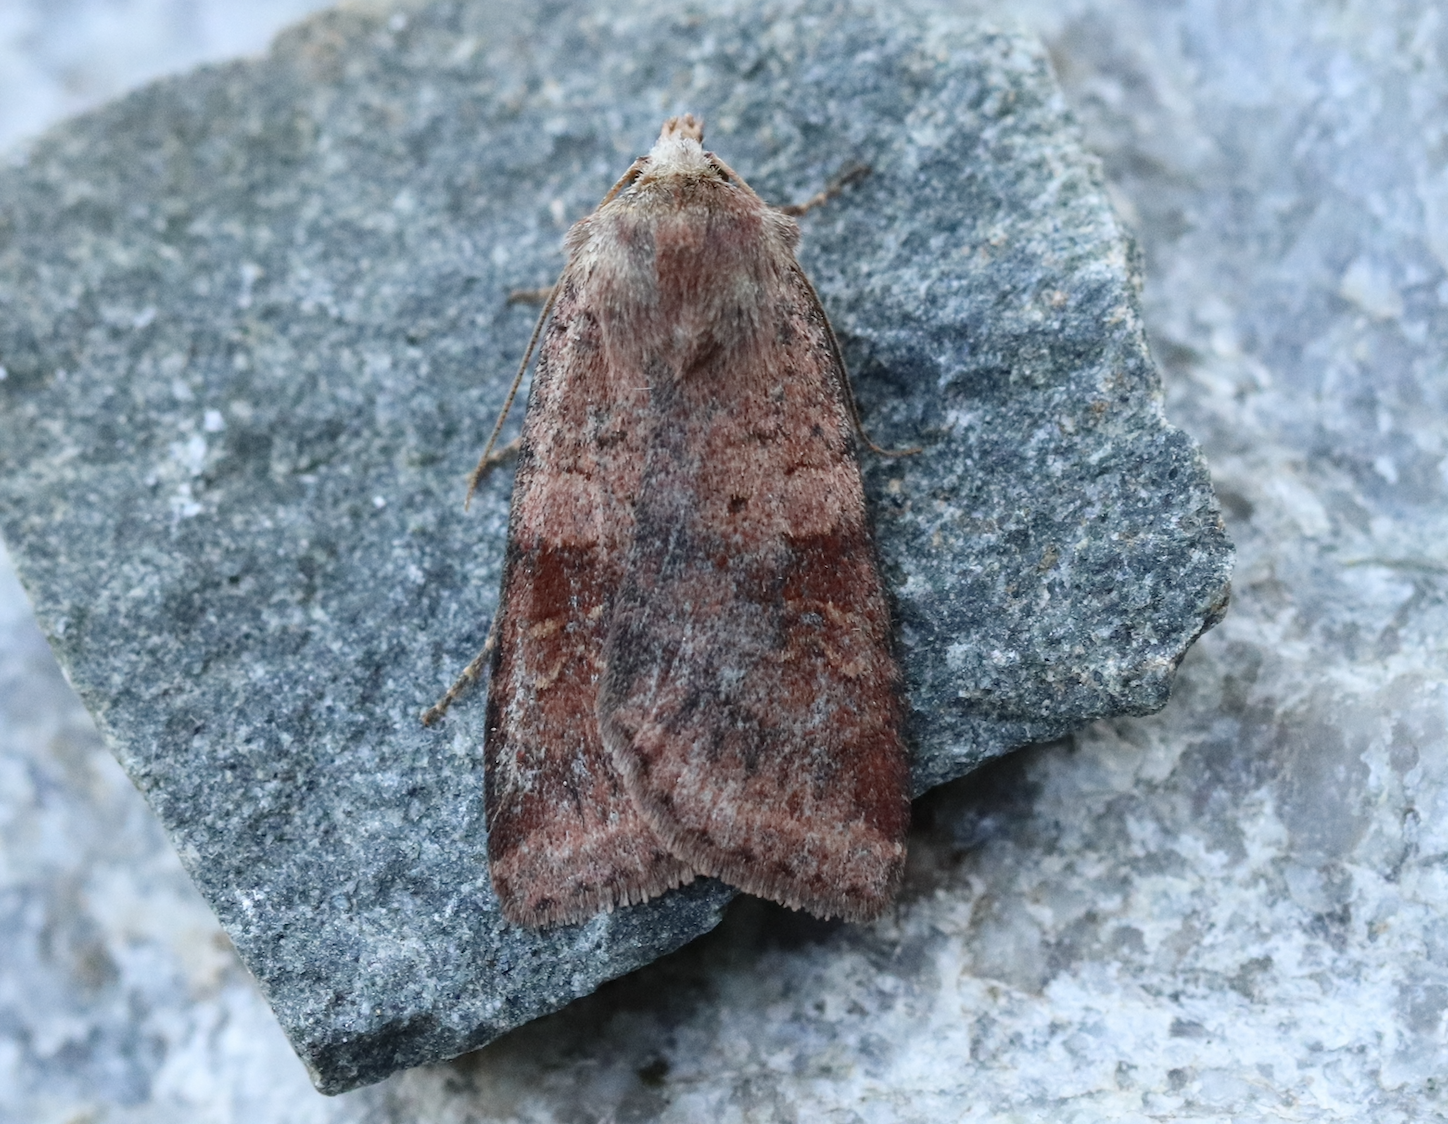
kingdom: Animalia
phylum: Arthropoda
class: Insecta
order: Lepidoptera
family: Noctuidae
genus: Diarsia
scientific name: Diarsia mendica
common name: Ingrailed clay
